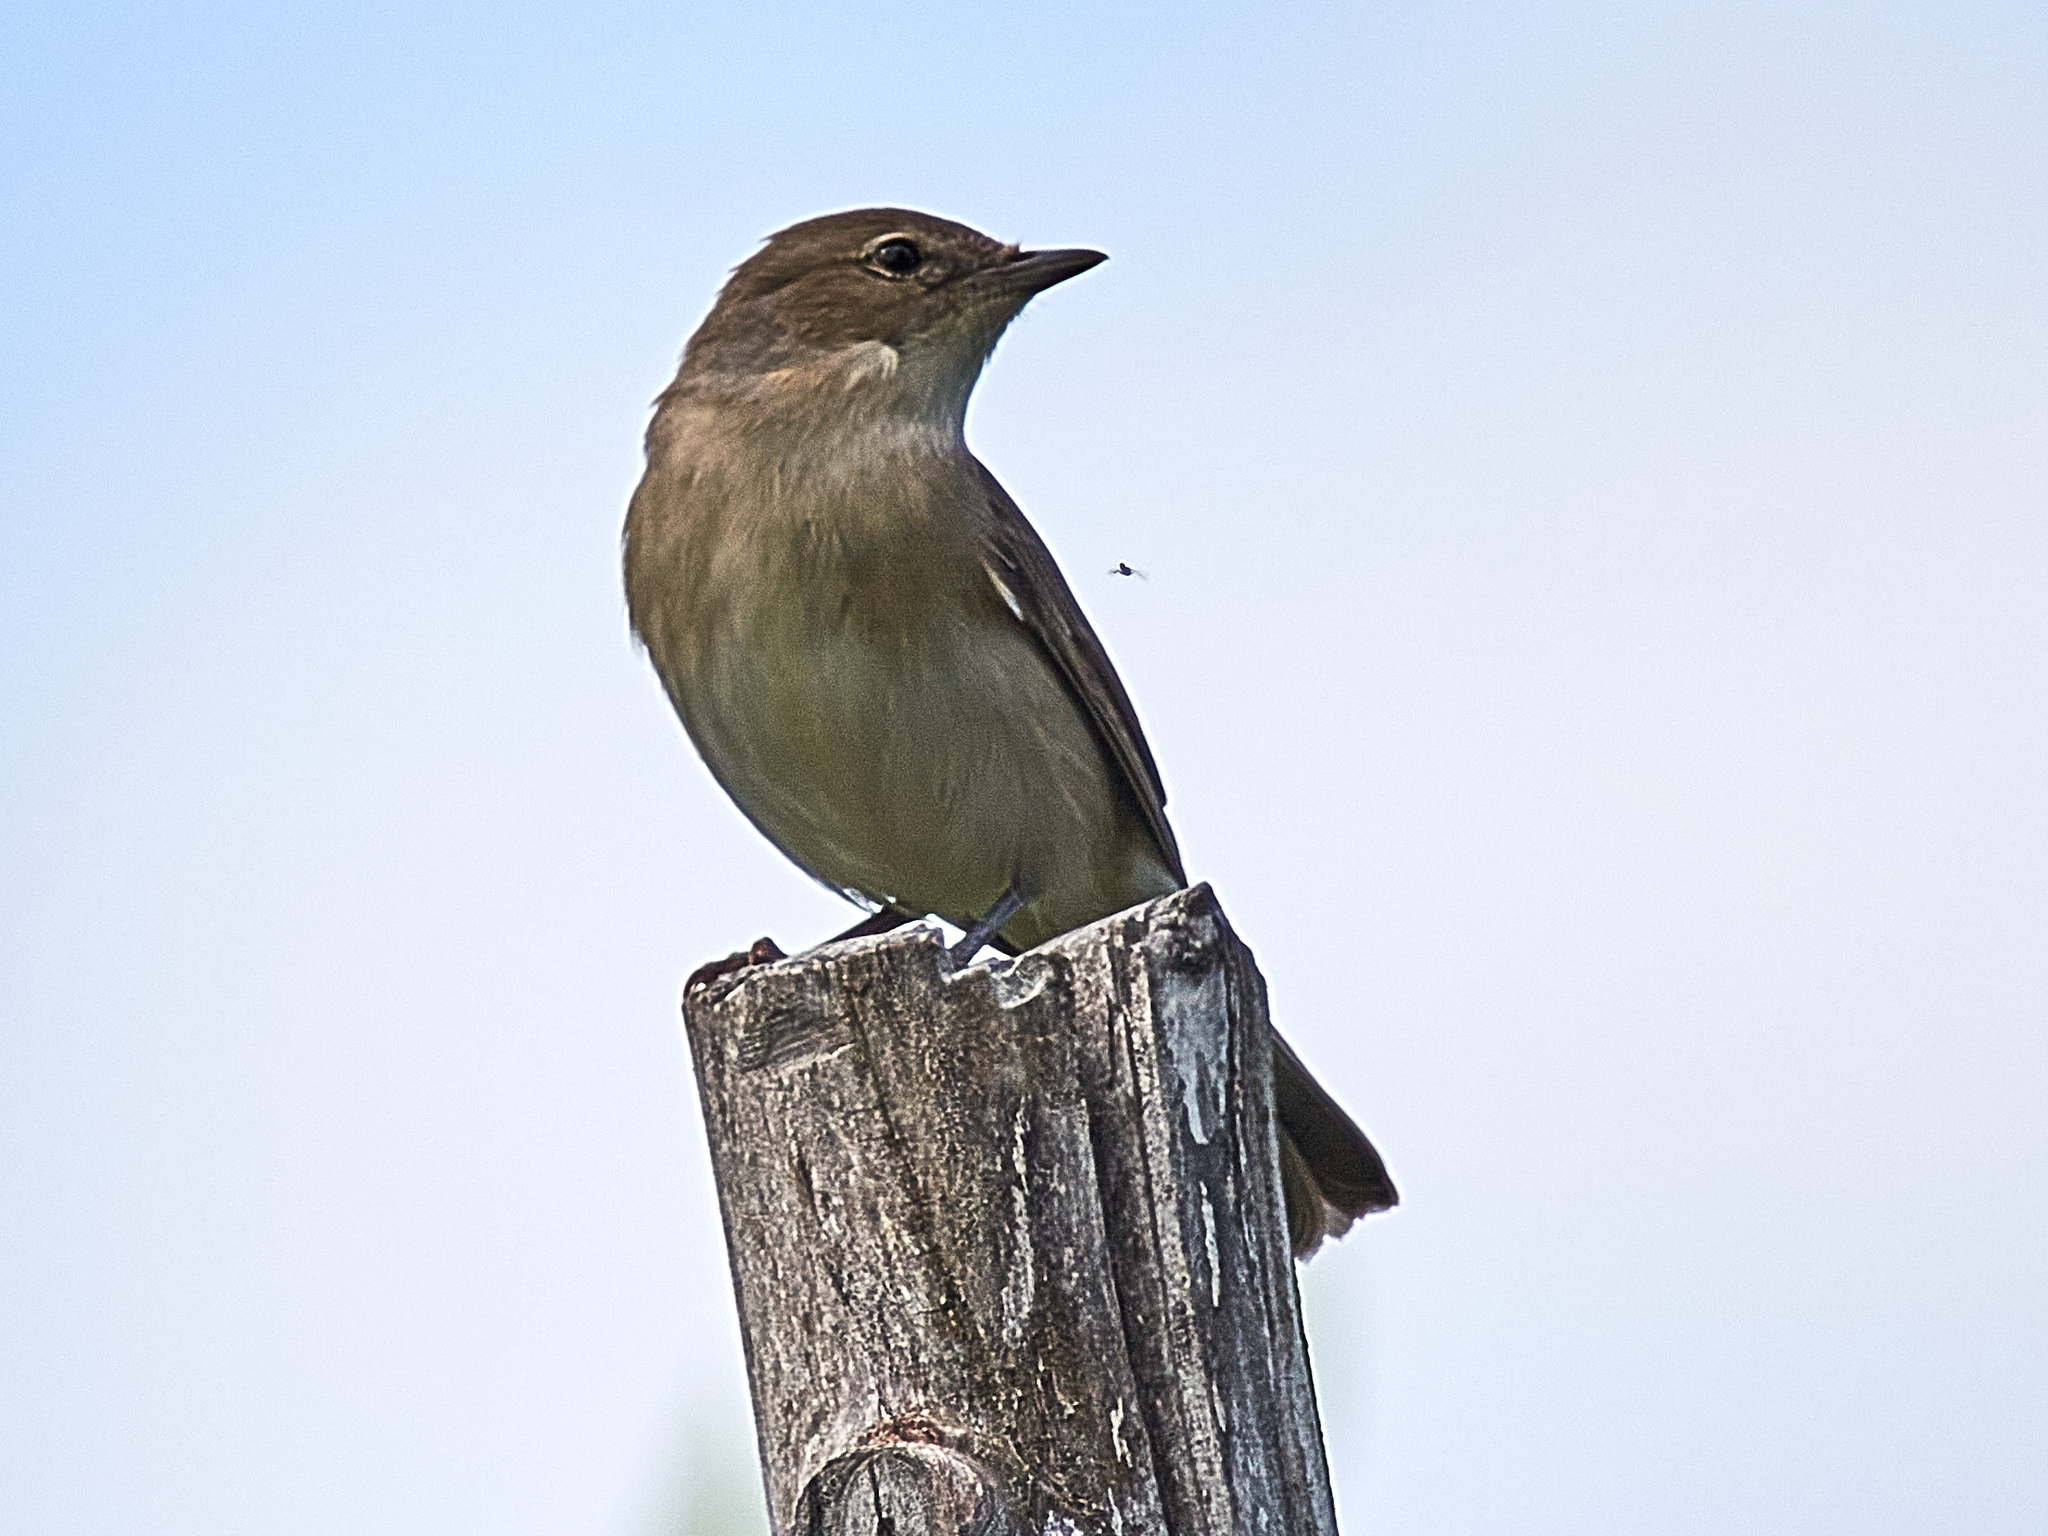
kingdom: Animalia
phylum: Chordata
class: Aves
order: Passeriformes
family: Sylviidae
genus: Sylvia
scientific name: Sylvia borin
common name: Garden warbler
